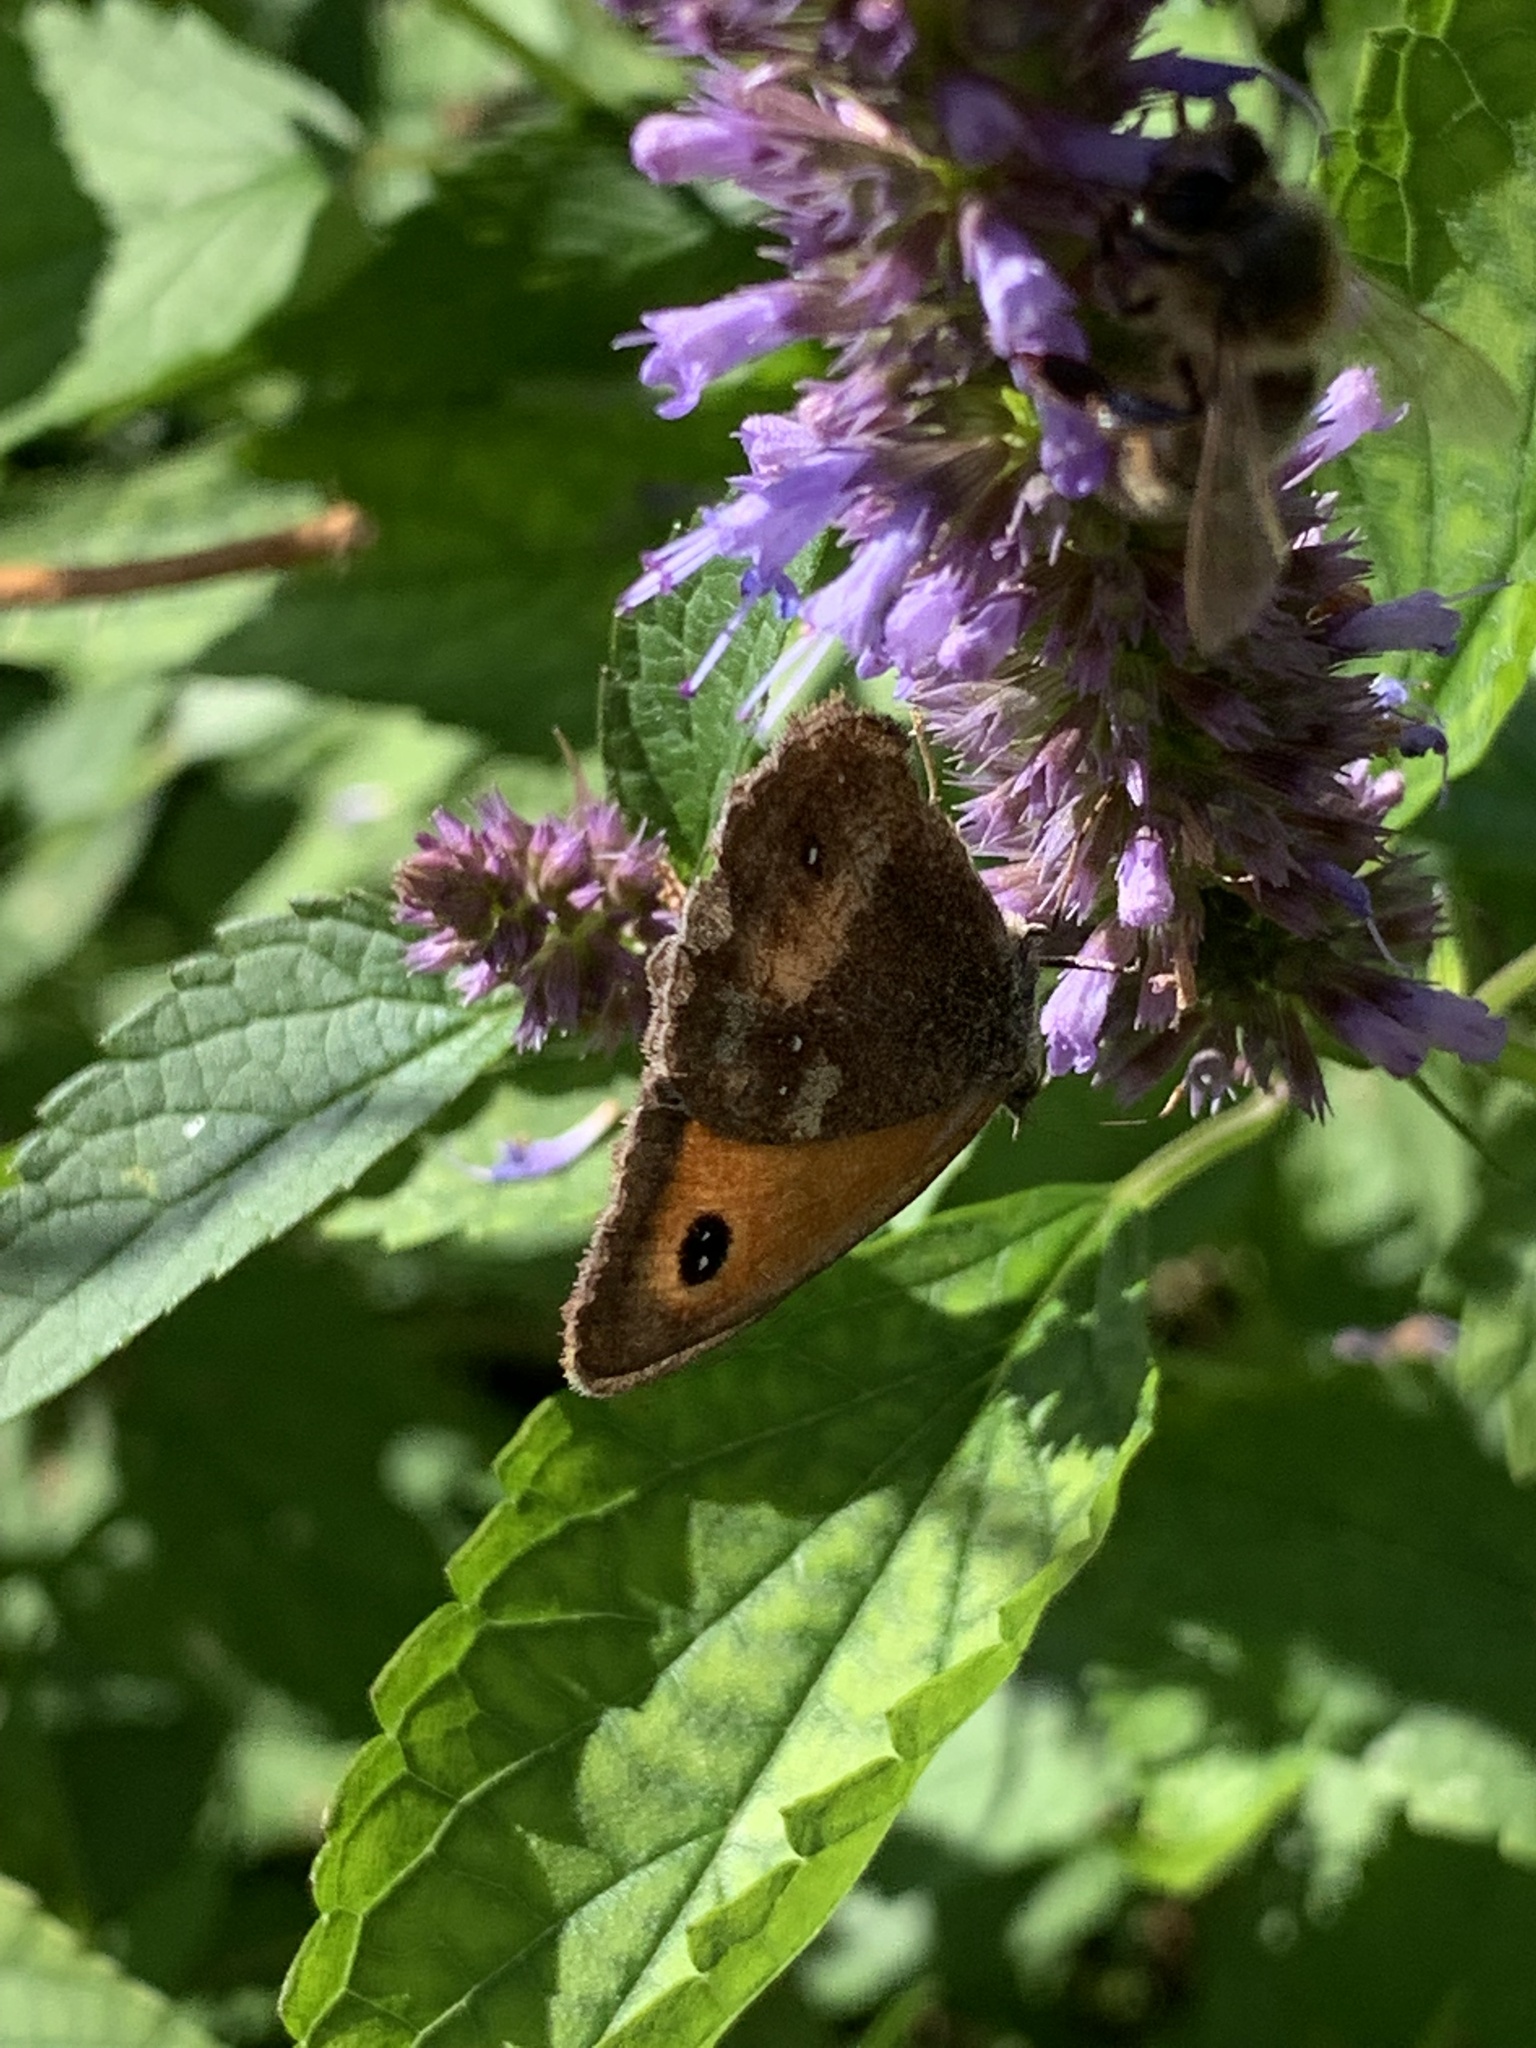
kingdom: Animalia
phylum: Arthropoda
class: Insecta
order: Lepidoptera
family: Nymphalidae
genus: Pyronia
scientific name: Pyronia tithonus
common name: Gatekeeper
